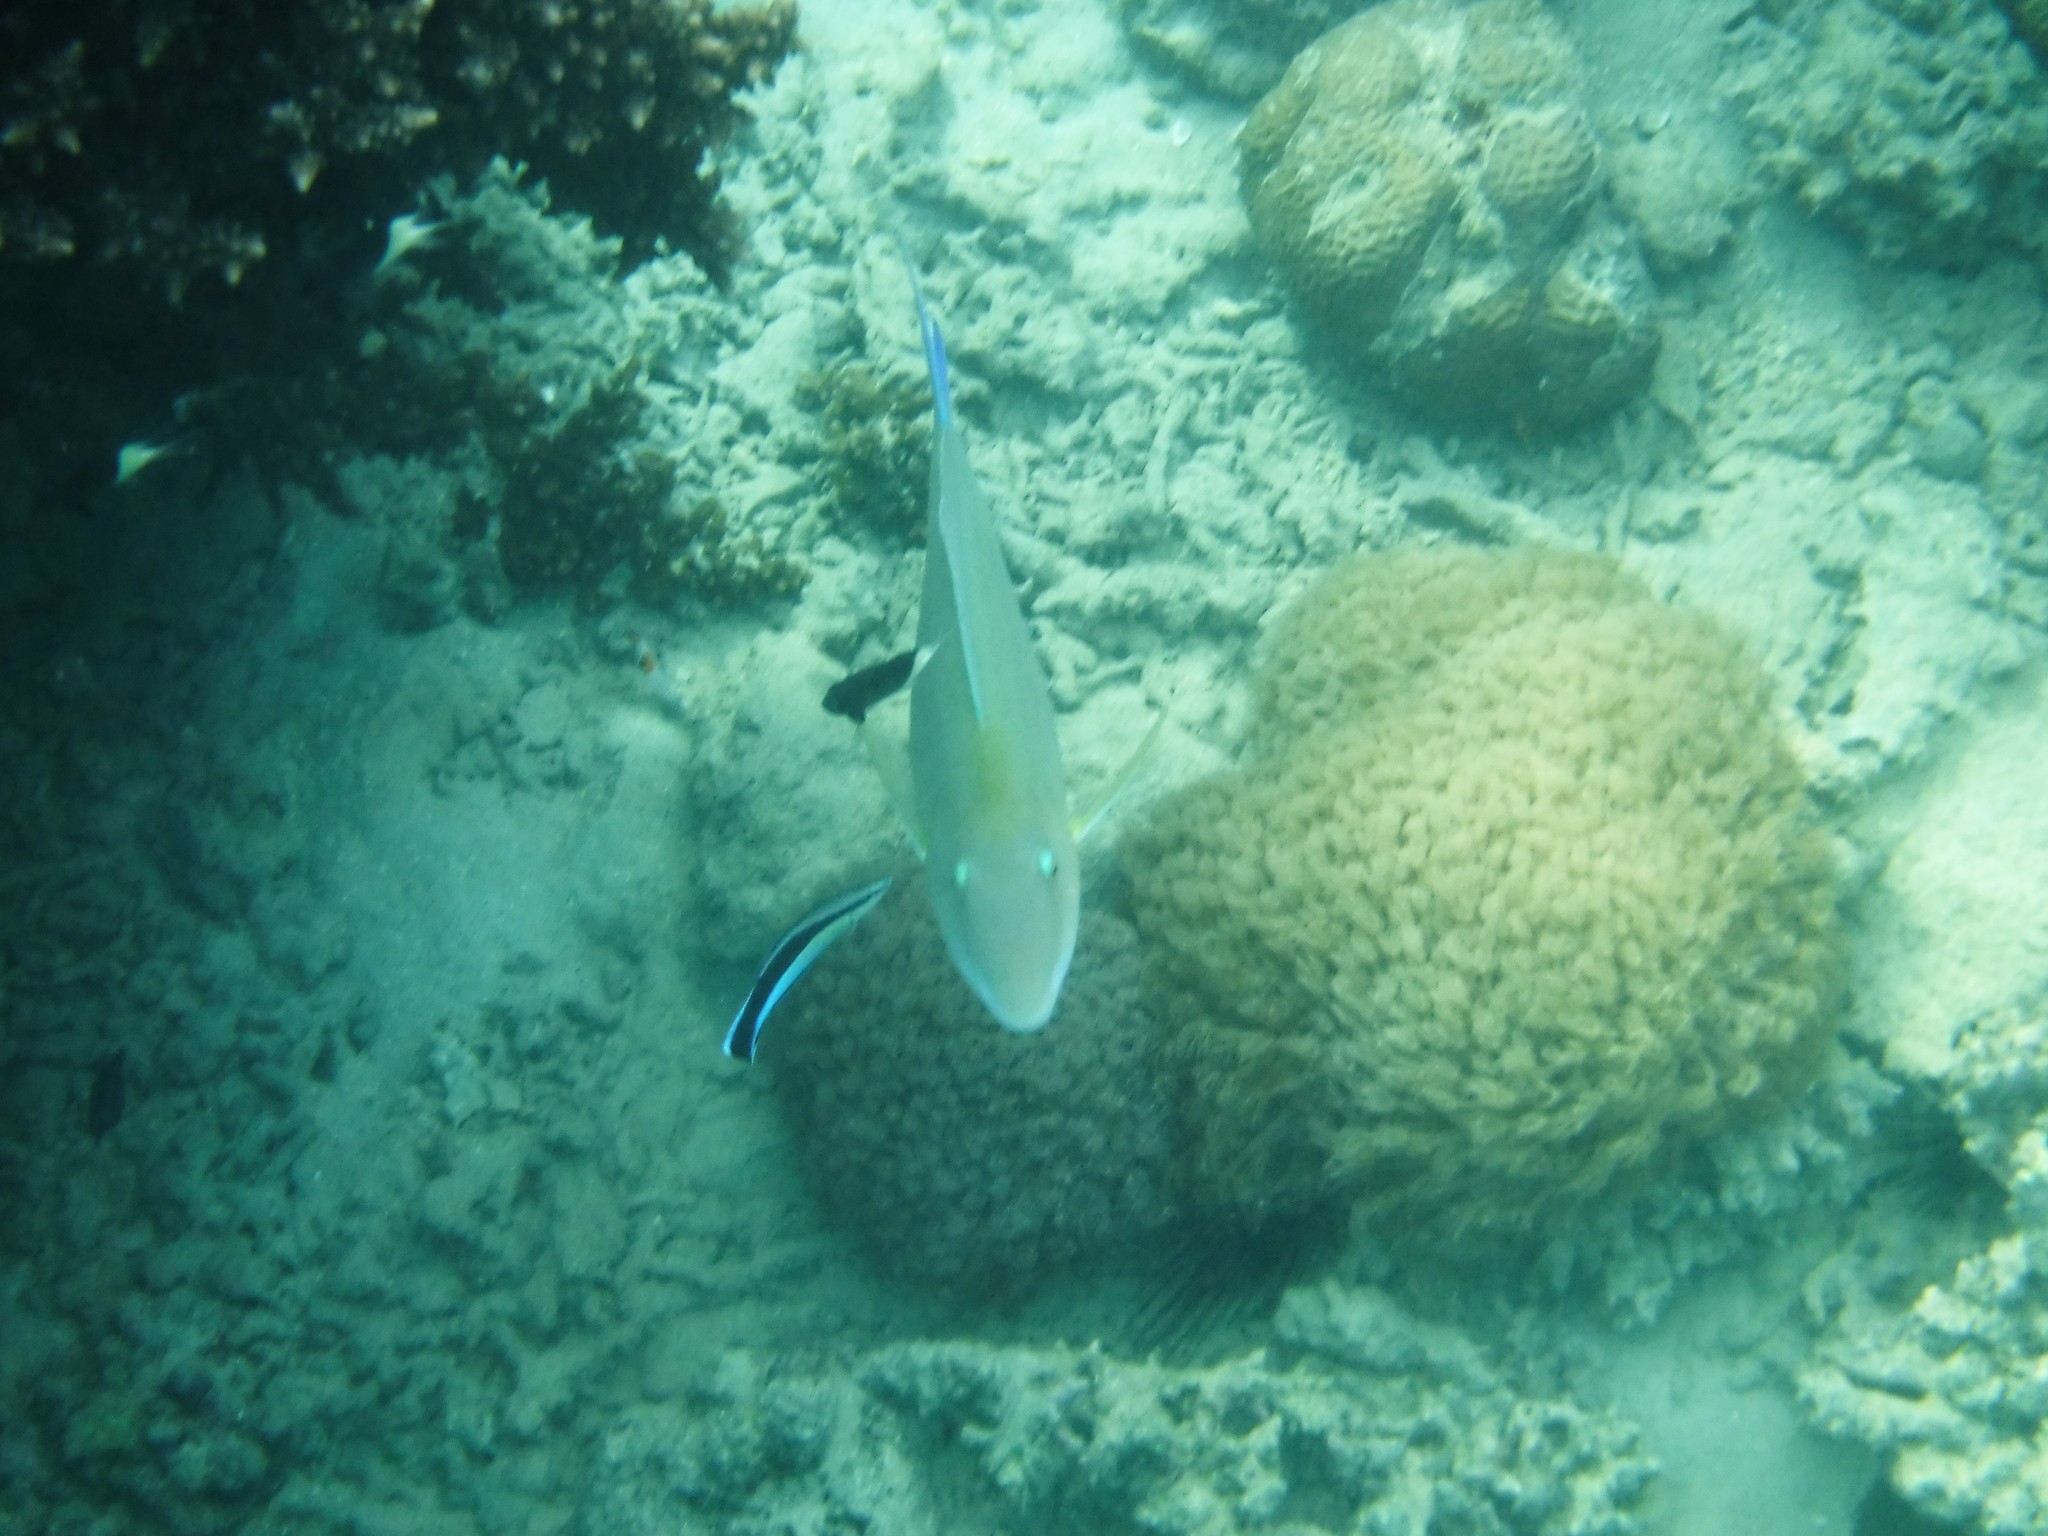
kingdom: Animalia
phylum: Chordata
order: Perciformes
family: Scaridae
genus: Hipposcarus
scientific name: Hipposcarus harid
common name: Candelamoa parrotfish
